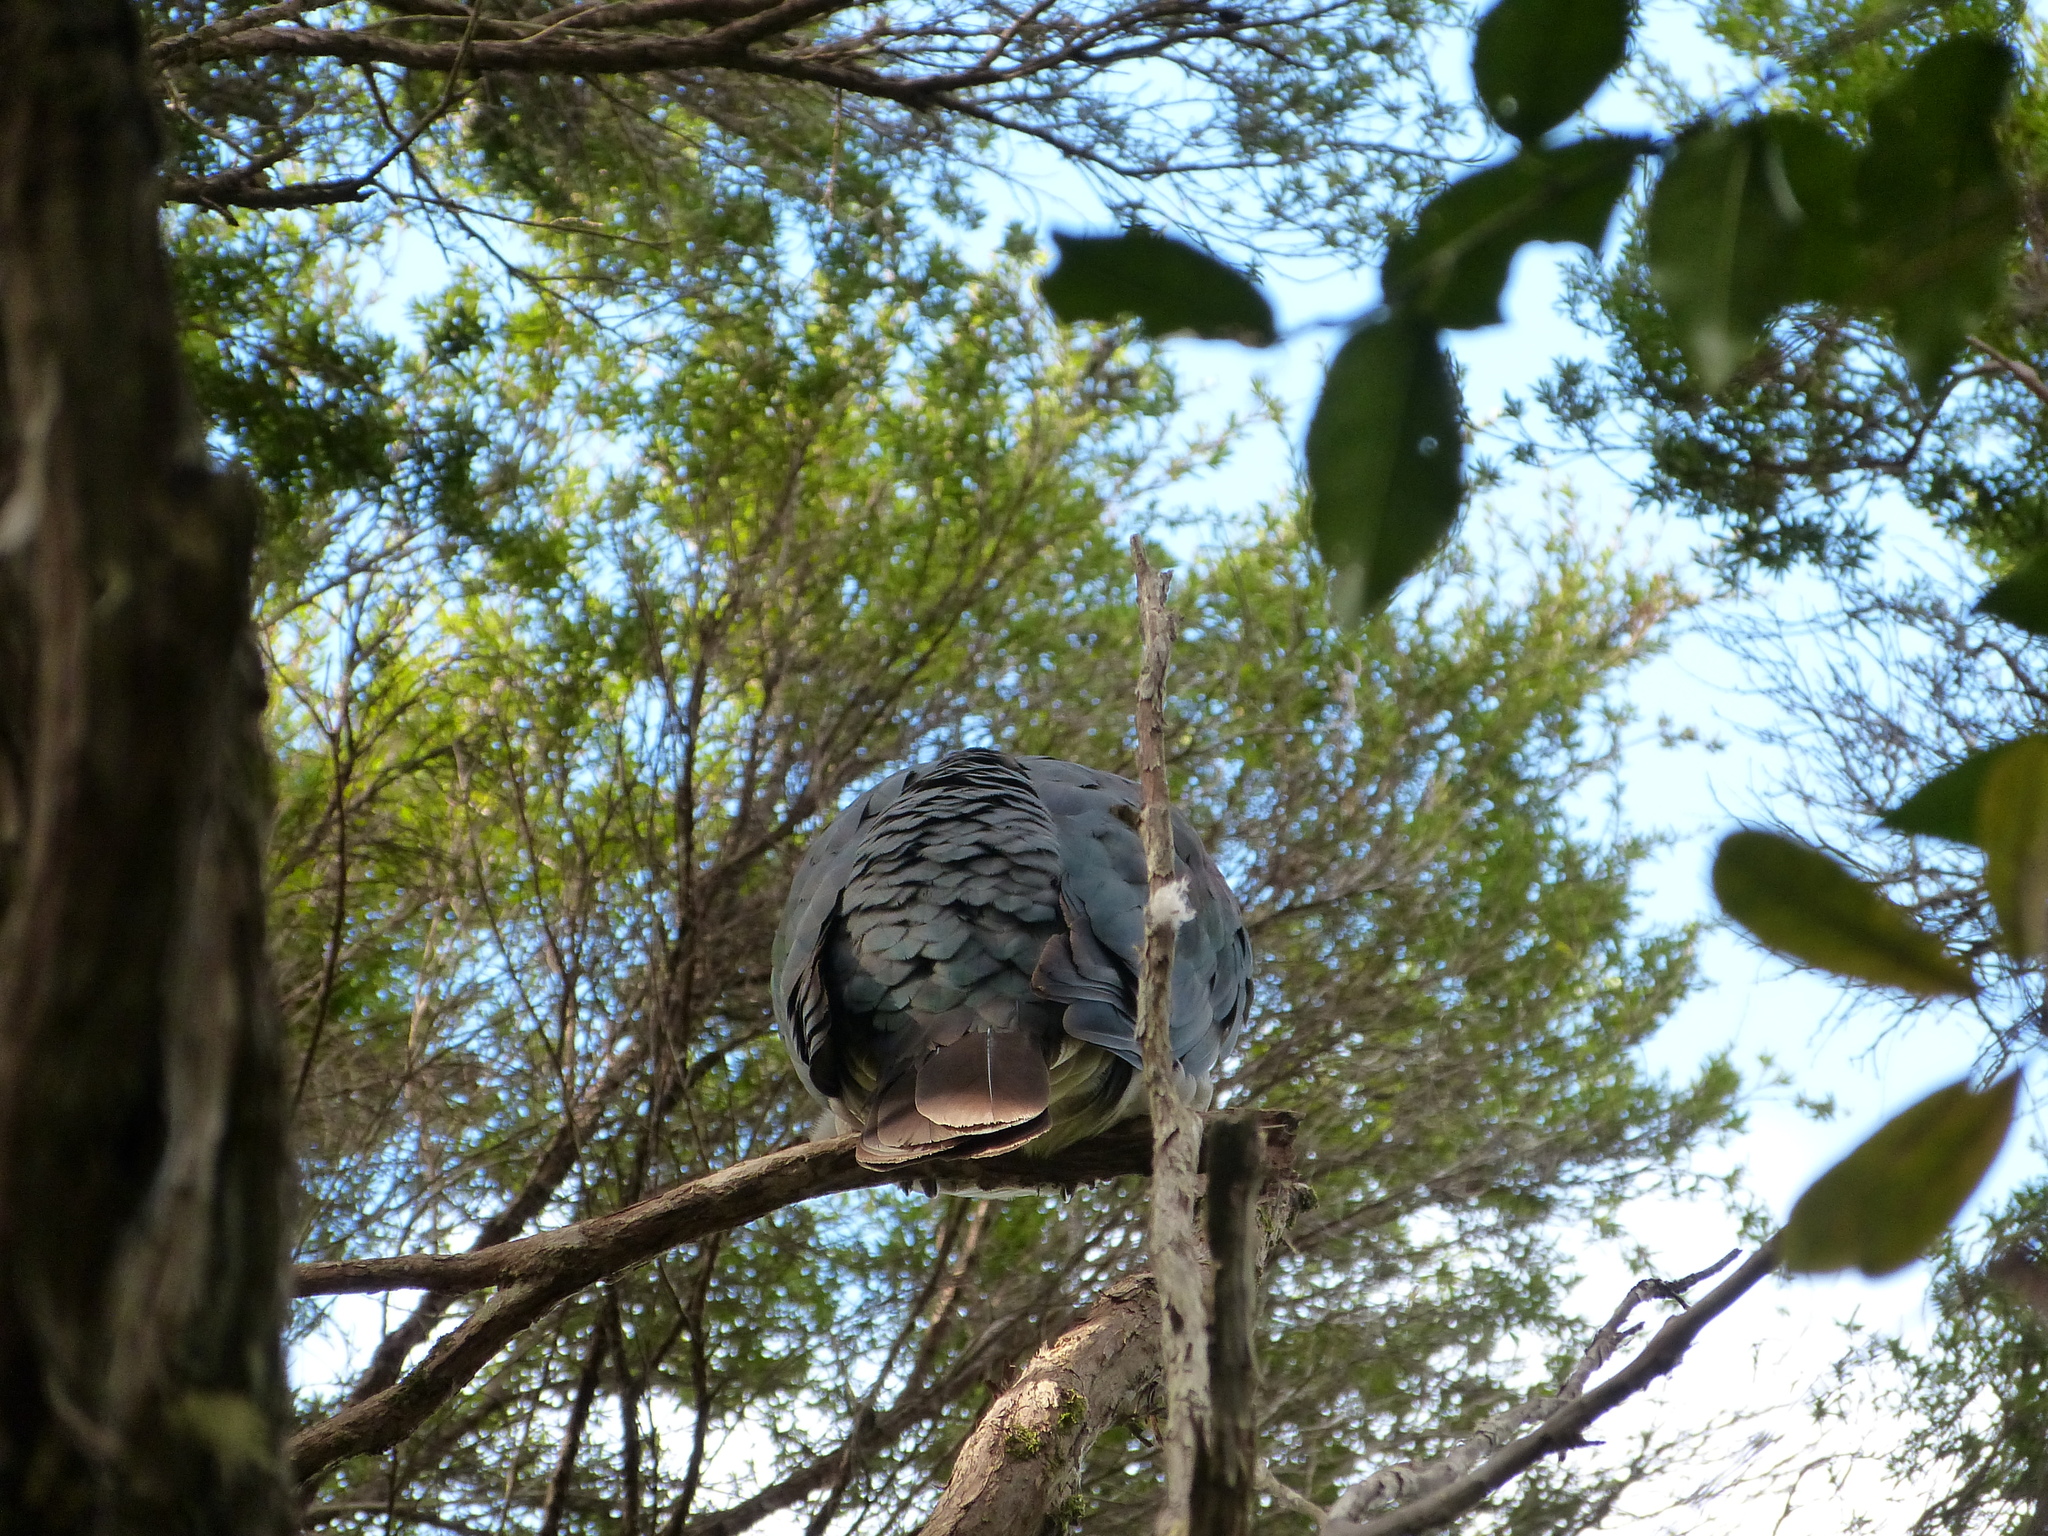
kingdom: Animalia
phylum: Chordata
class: Aves
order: Columbiformes
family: Columbidae
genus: Hemiphaga
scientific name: Hemiphaga novaeseelandiae
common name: New zealand pigeon
